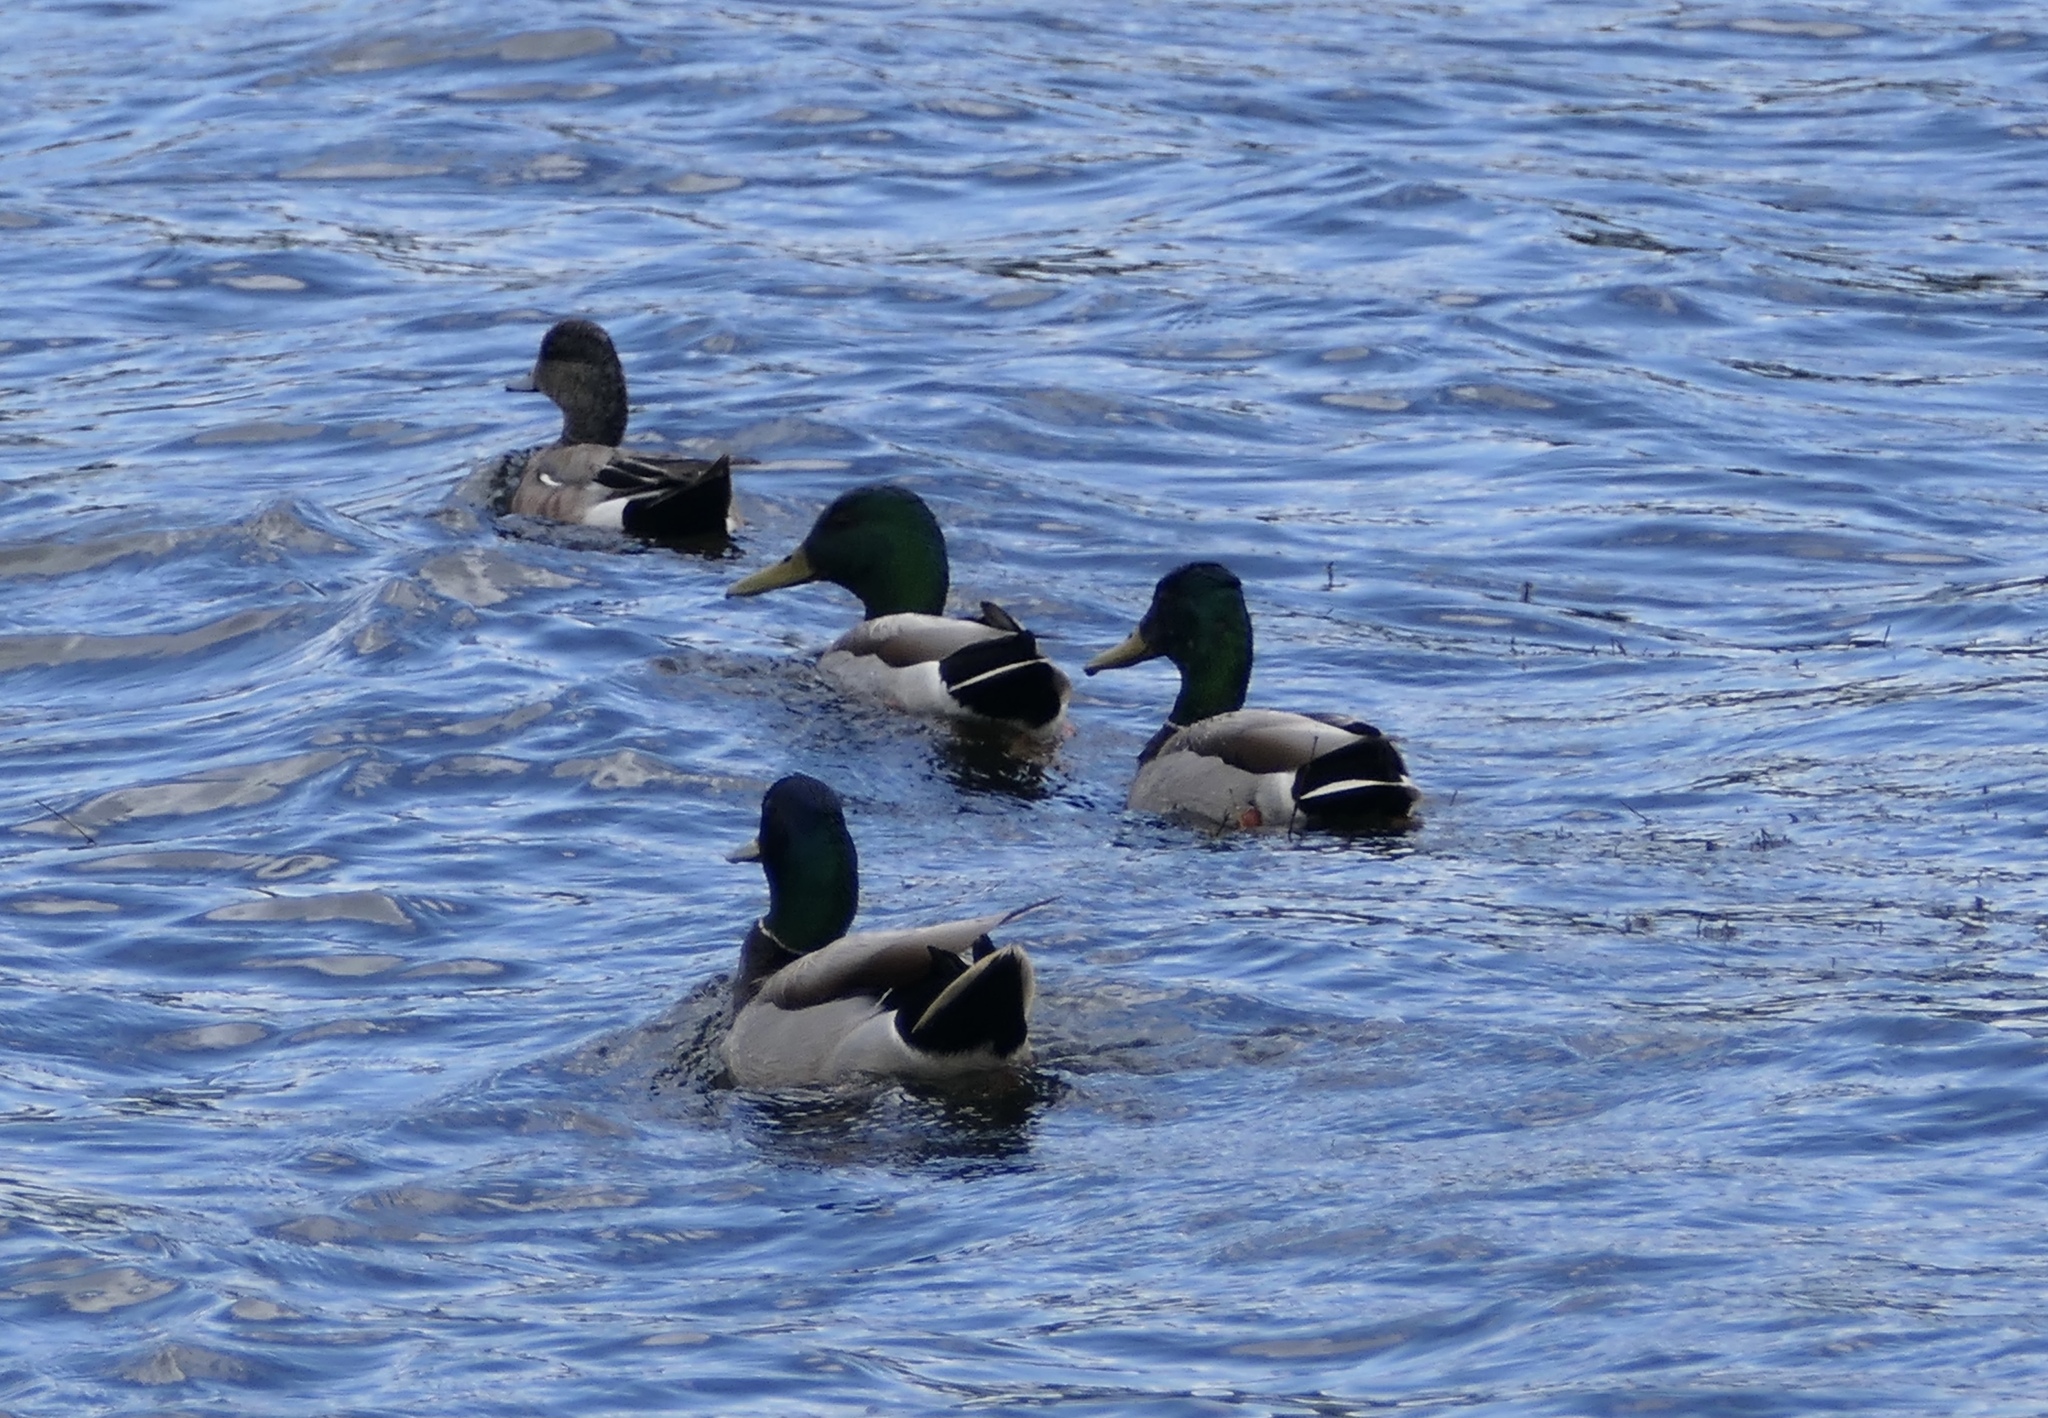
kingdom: Animalia
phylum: Chordata
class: Aves
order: Anseriformes
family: Anatidae
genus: Anas
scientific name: Anas platyrhynchos
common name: Mallard
